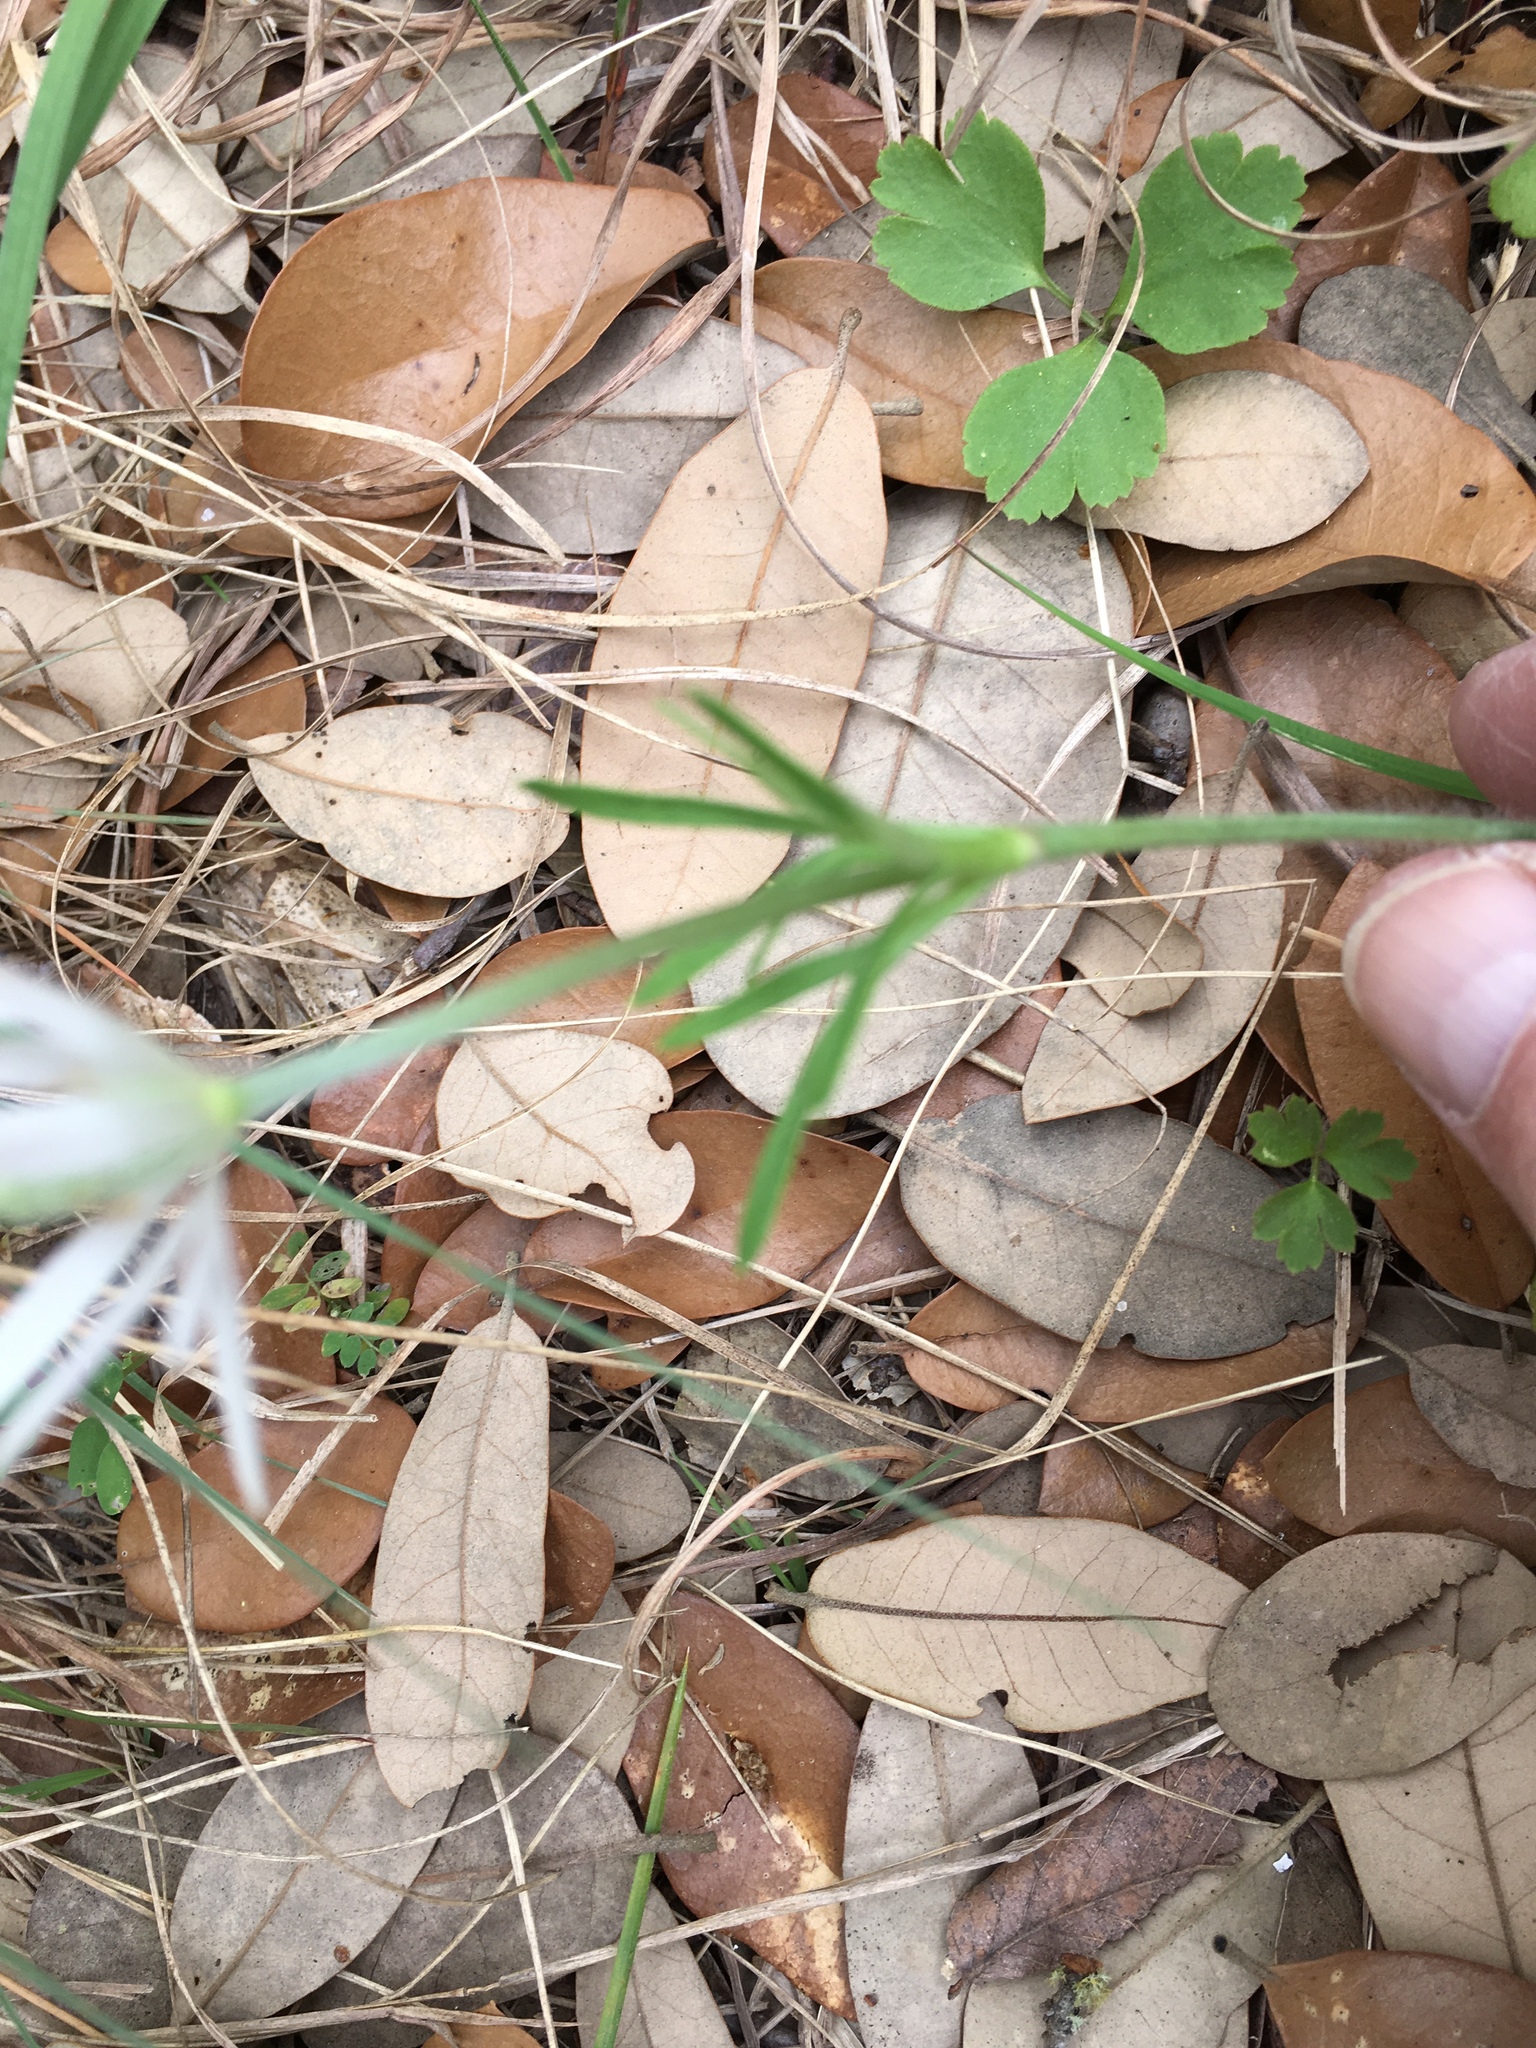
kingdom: Plantae
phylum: Tracheophyta
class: Magnoliopsida
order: Ranunculales
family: Ranunculaceae
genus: Anemone
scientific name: Anemone berlandieri
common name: Ten-petal anemone
